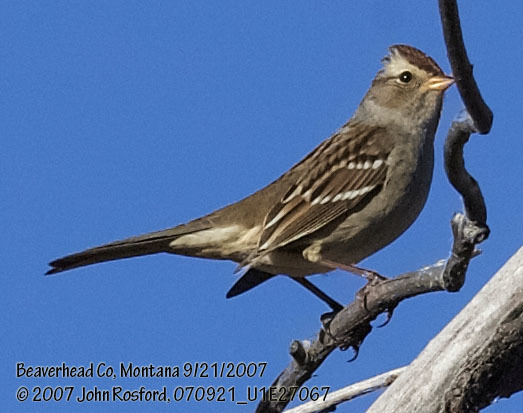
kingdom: Animalia
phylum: Chordata
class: Aves
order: Passeriformes
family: Passerellidae
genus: Zonotrichia
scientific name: Zonotrichia leucophrys
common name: White-crowned sparrow
